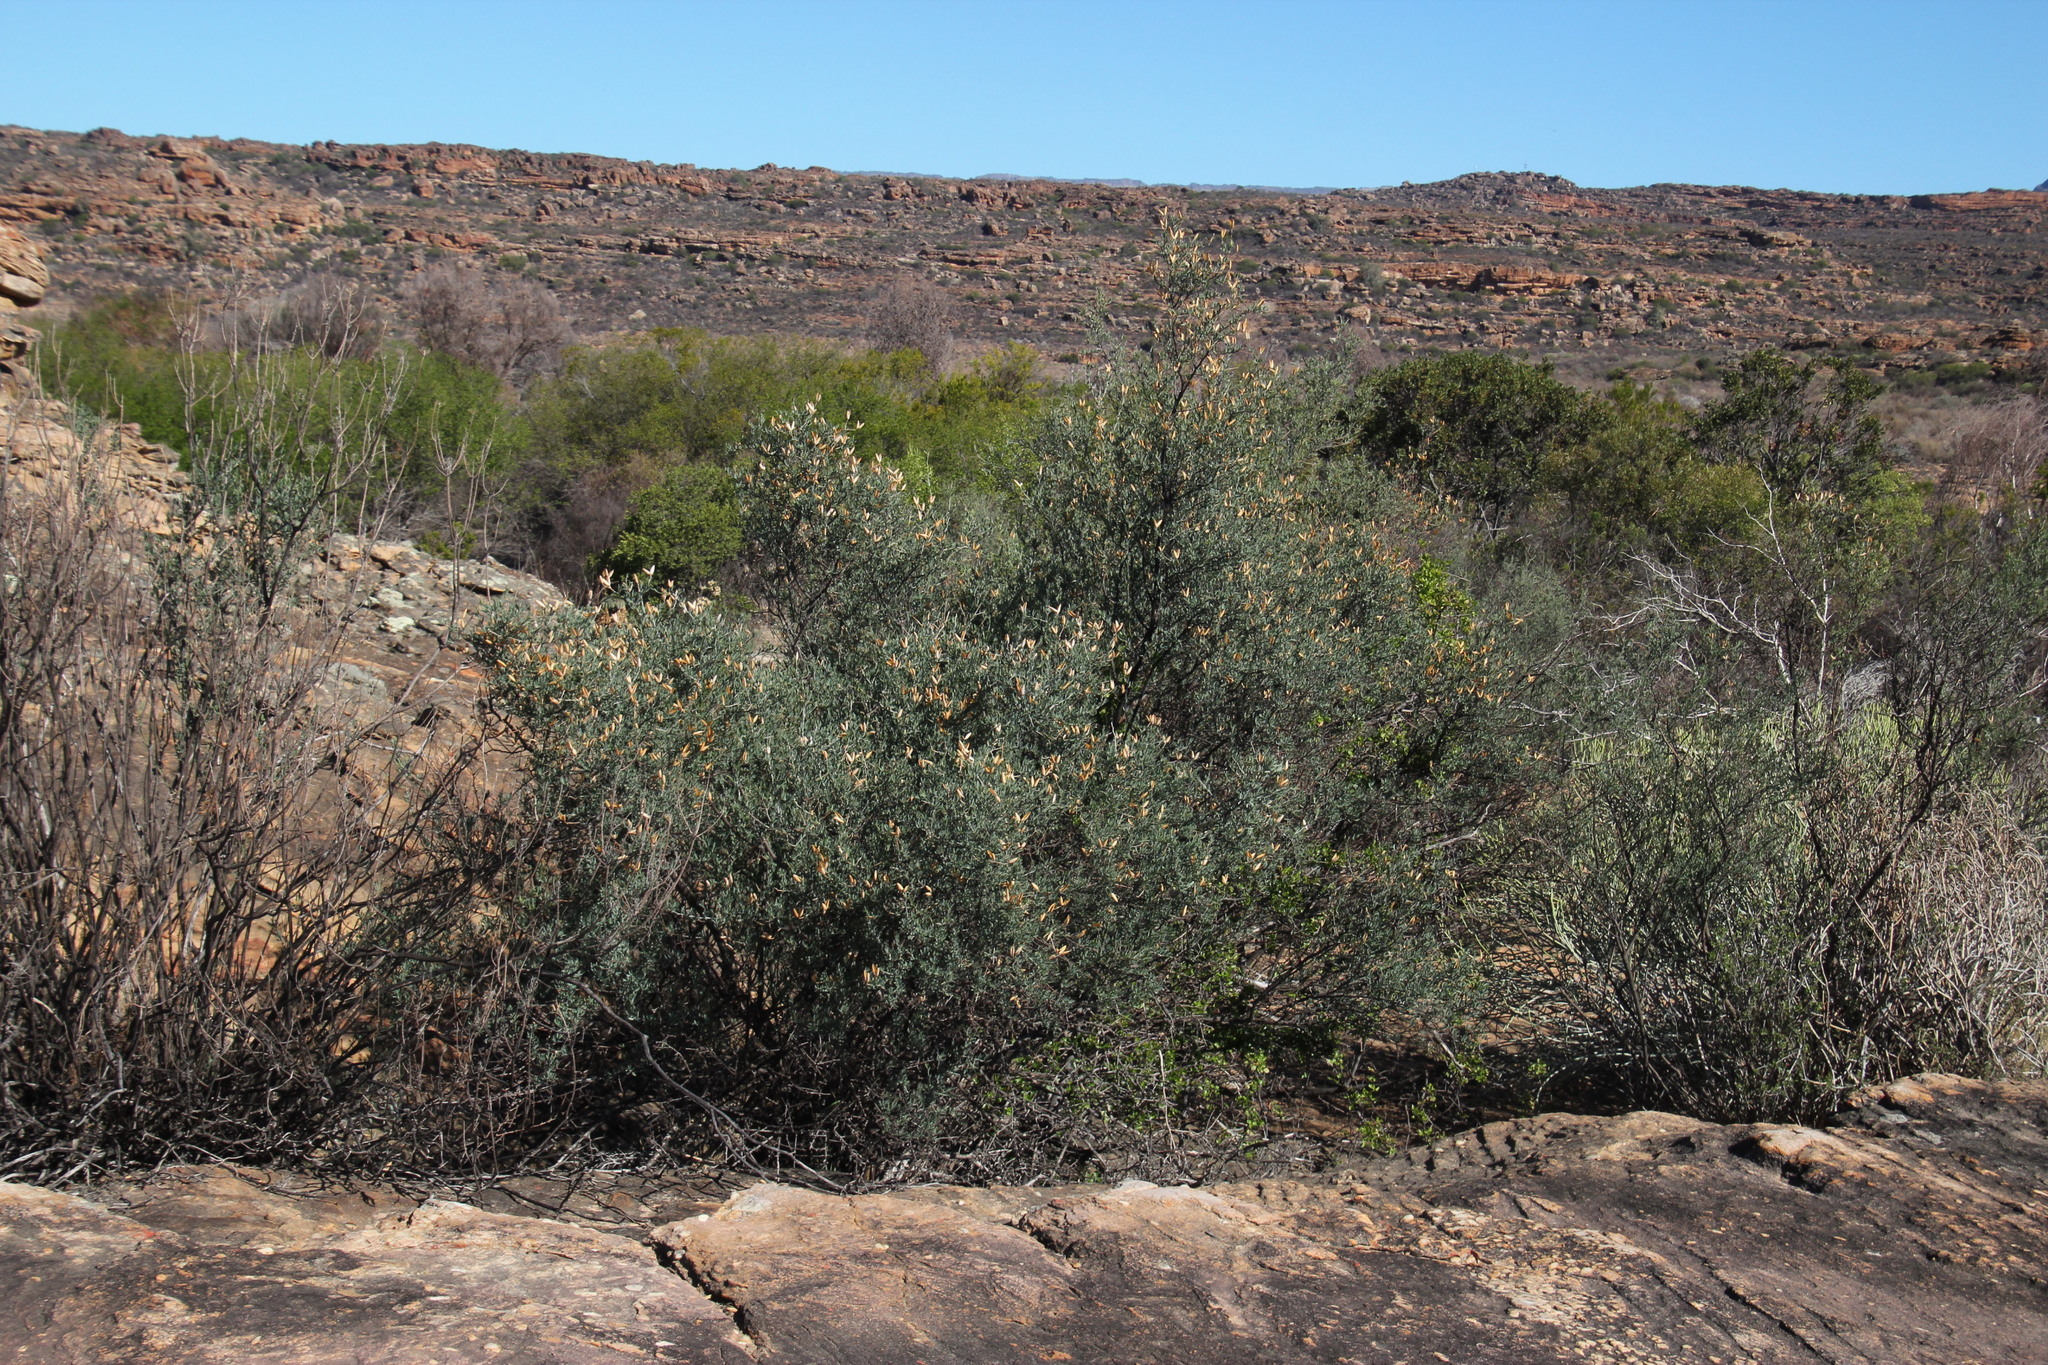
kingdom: Plantae
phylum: Tracheophyta
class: Magnoliopsida
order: Solanales
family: Montiniaceae
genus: Montinia
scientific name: Montinia caryophyllacea
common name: Wild clove-bush
